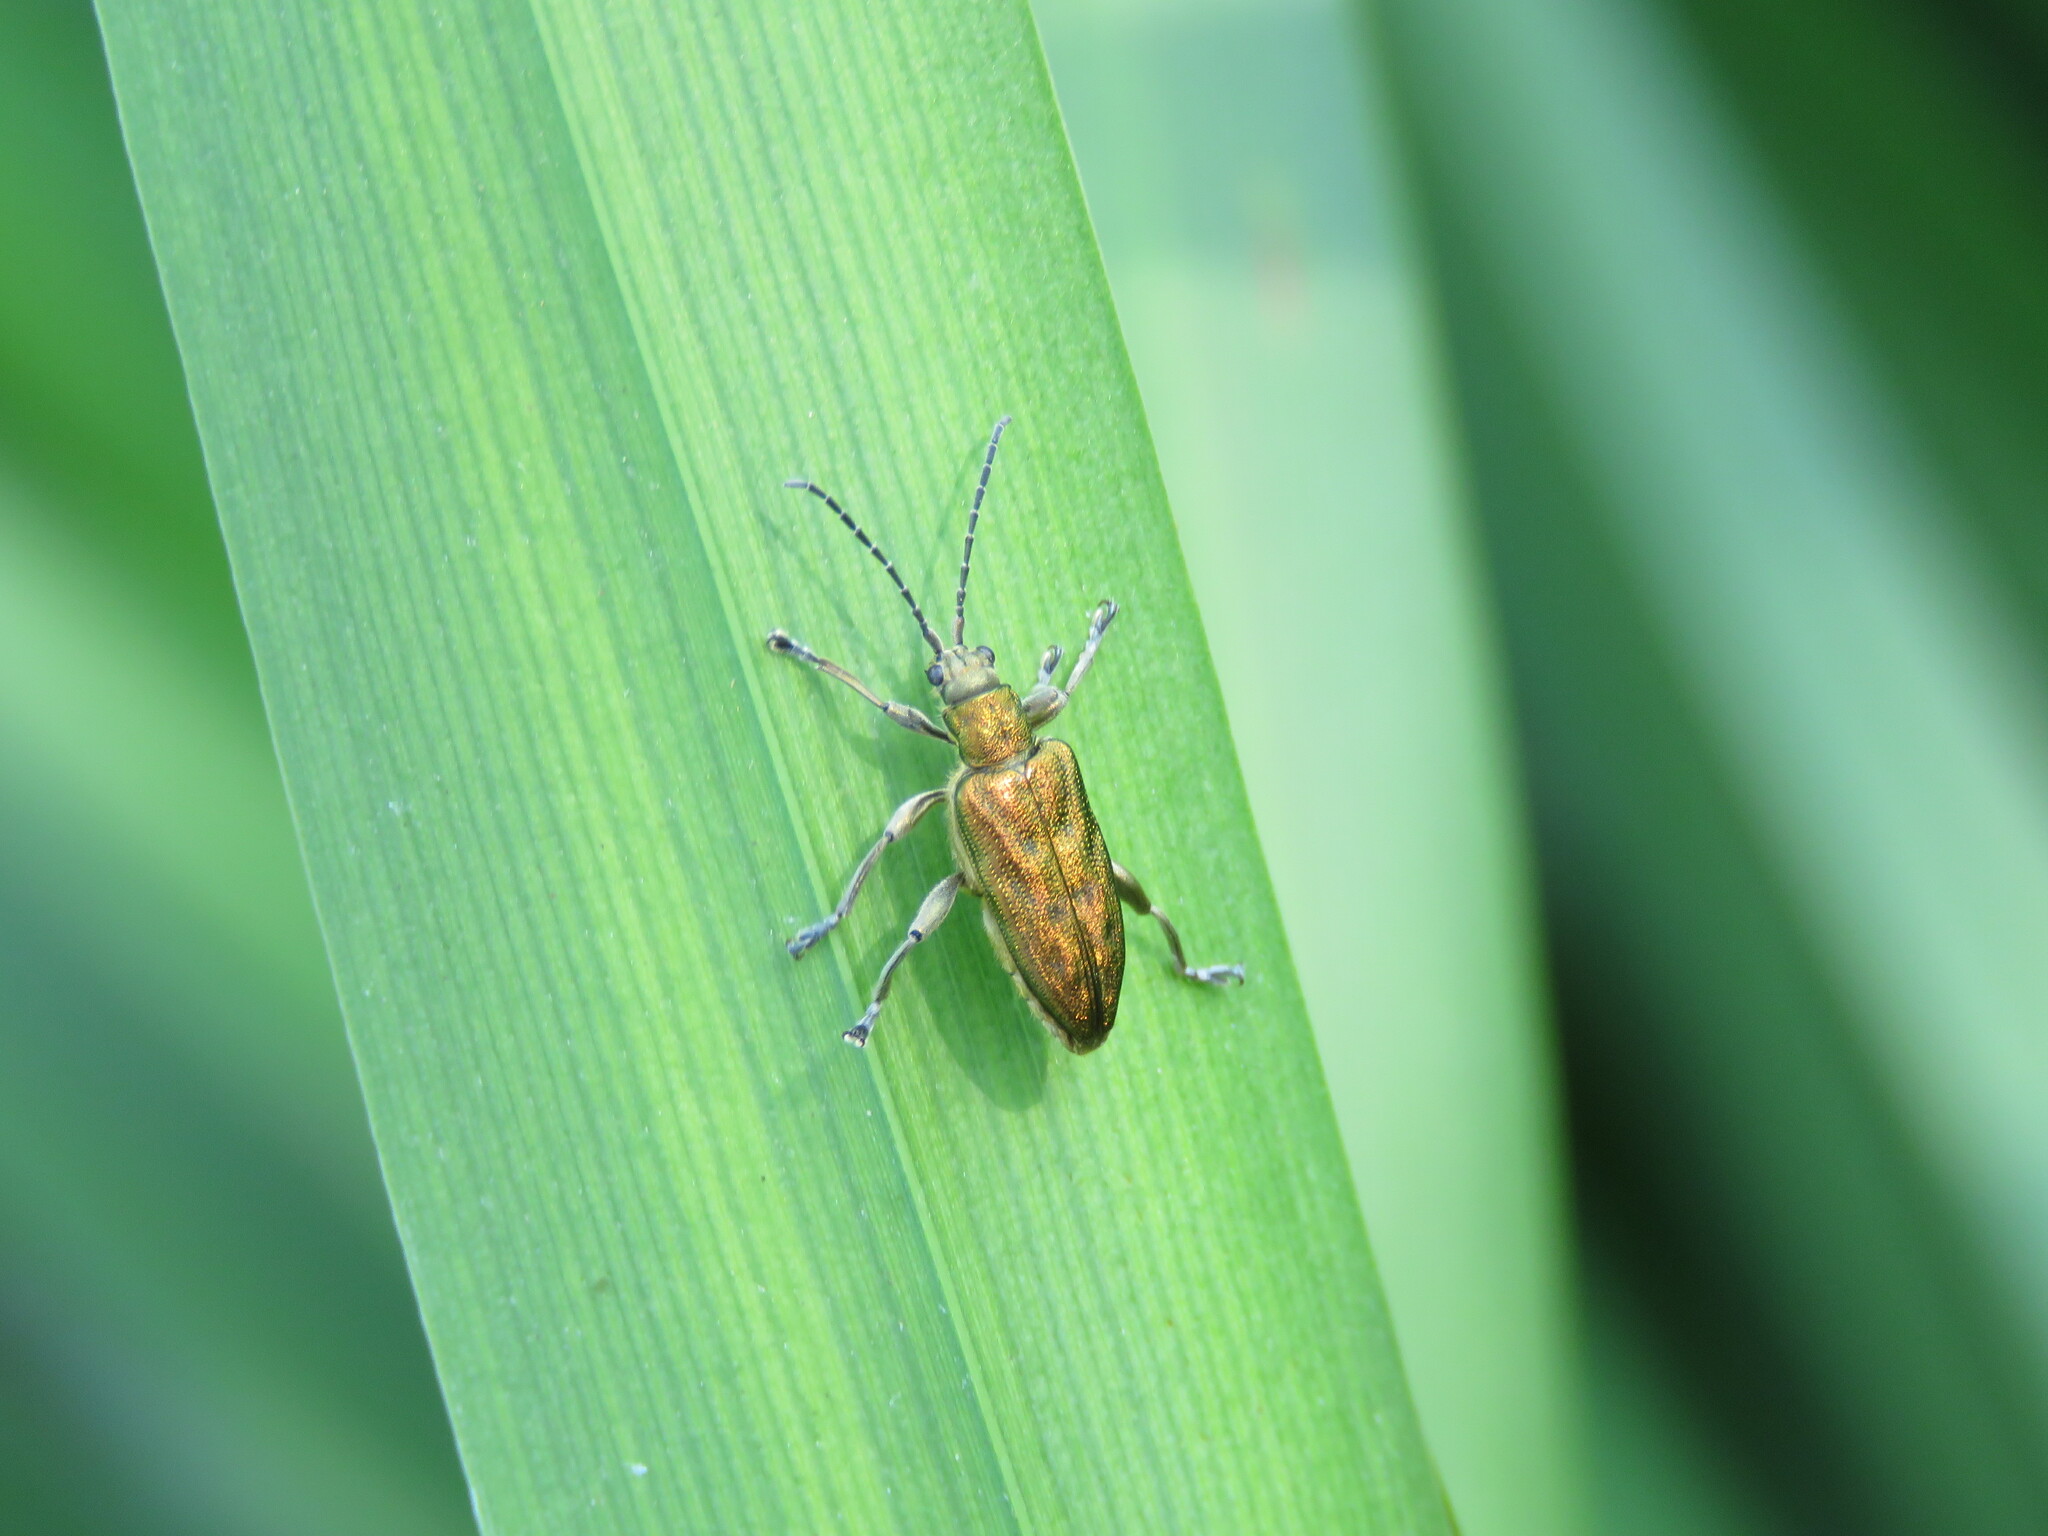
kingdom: Animalia
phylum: Arthropoda
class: Insecta
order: Coleoptera
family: Chrysomelidae
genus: Donacia
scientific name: Donacia bicolora
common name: Reed beetle
